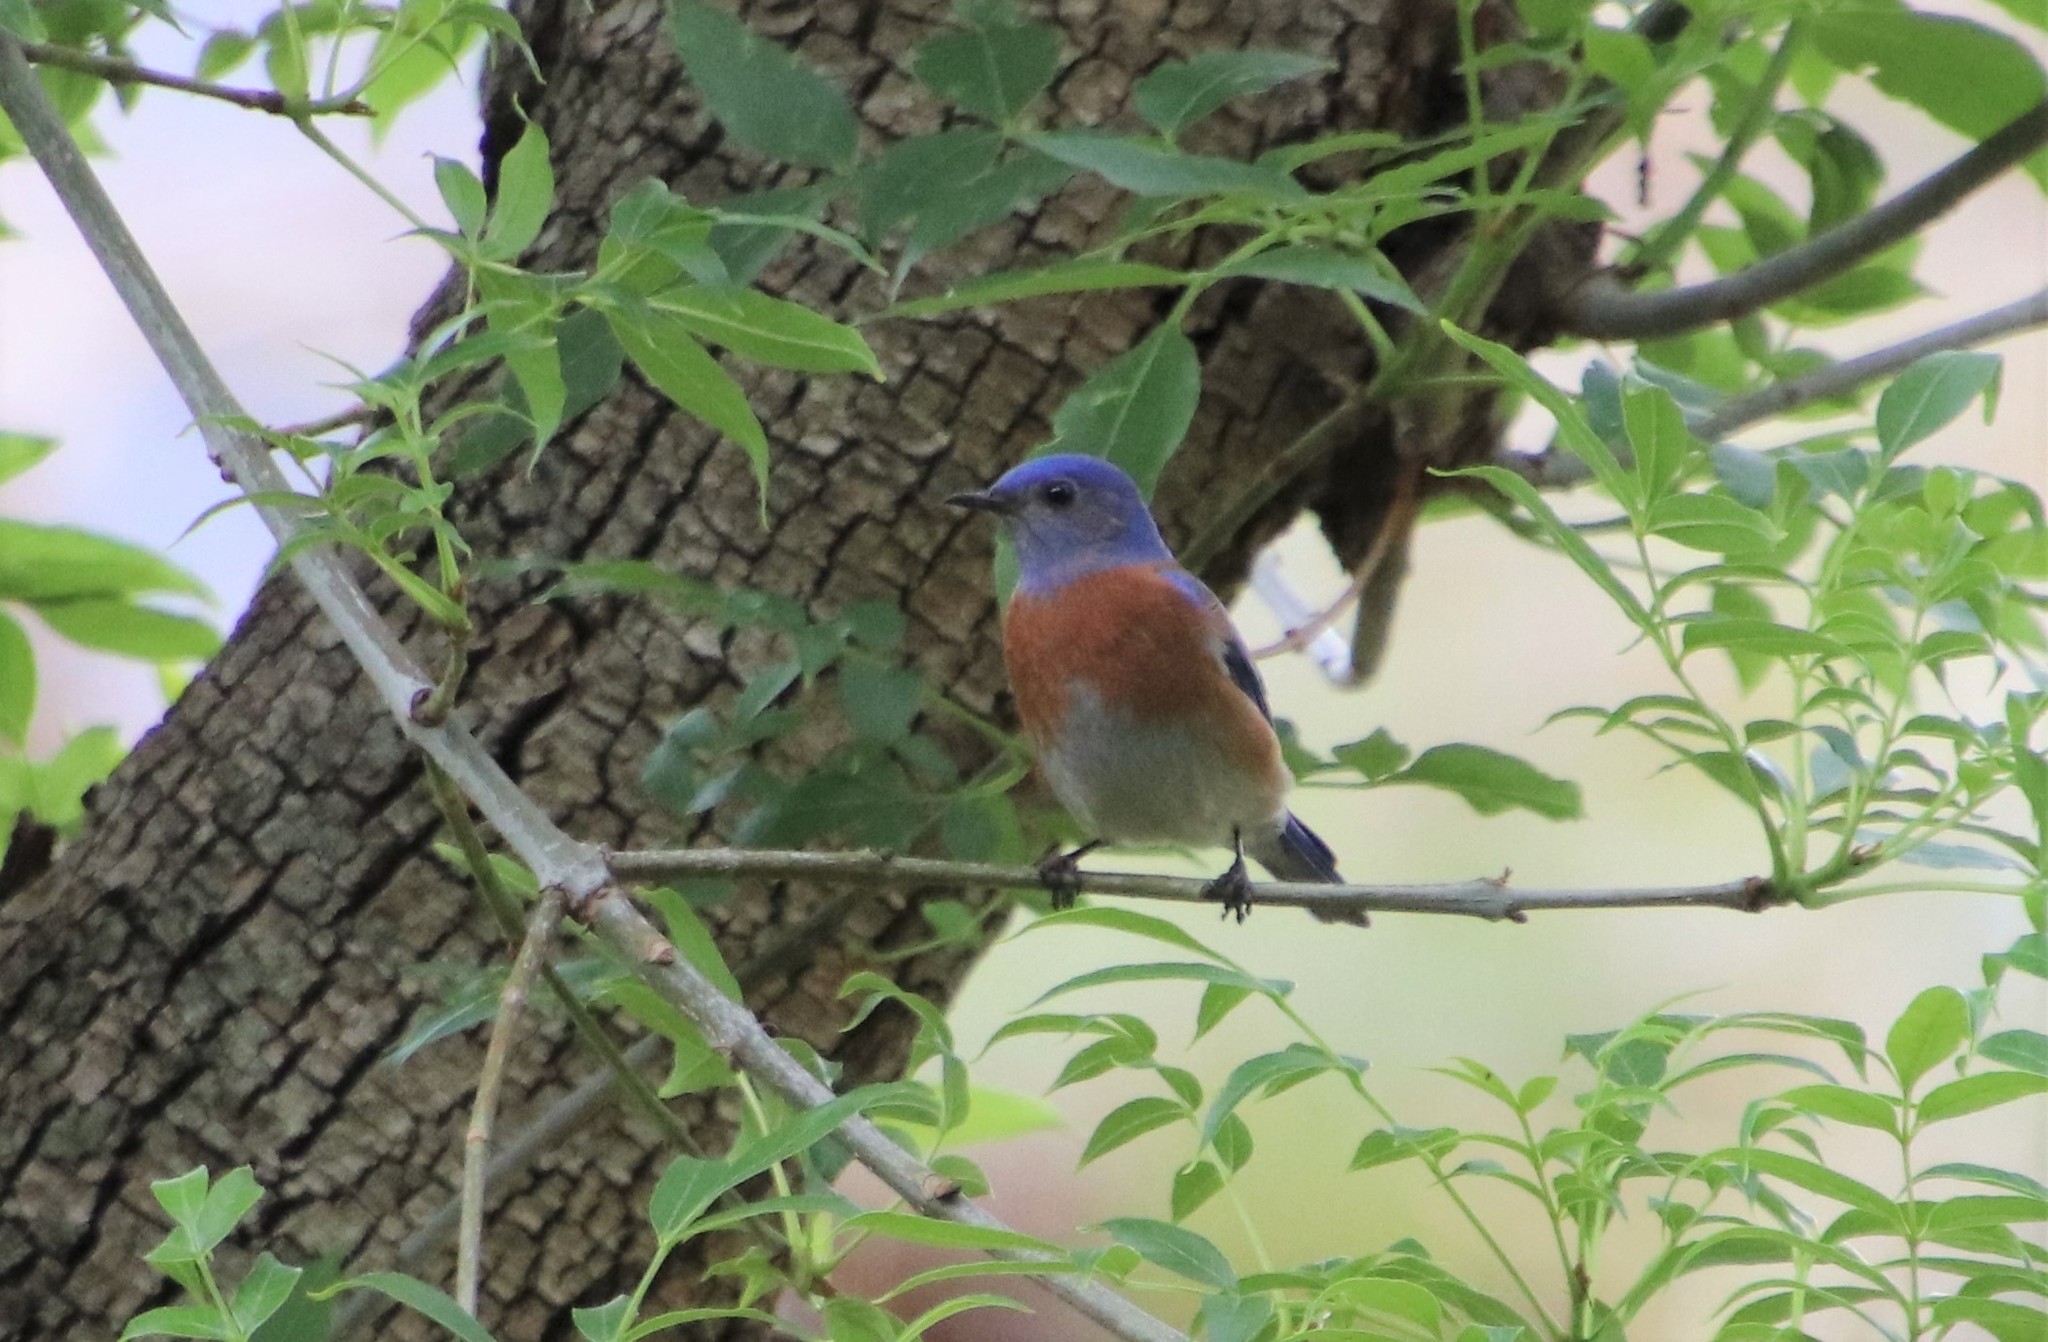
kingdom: Animalia
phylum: Chordata
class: Aves
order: Passeriformes
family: Turdidae
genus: Sialia
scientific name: Sialia mexicana
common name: Western bluebird
